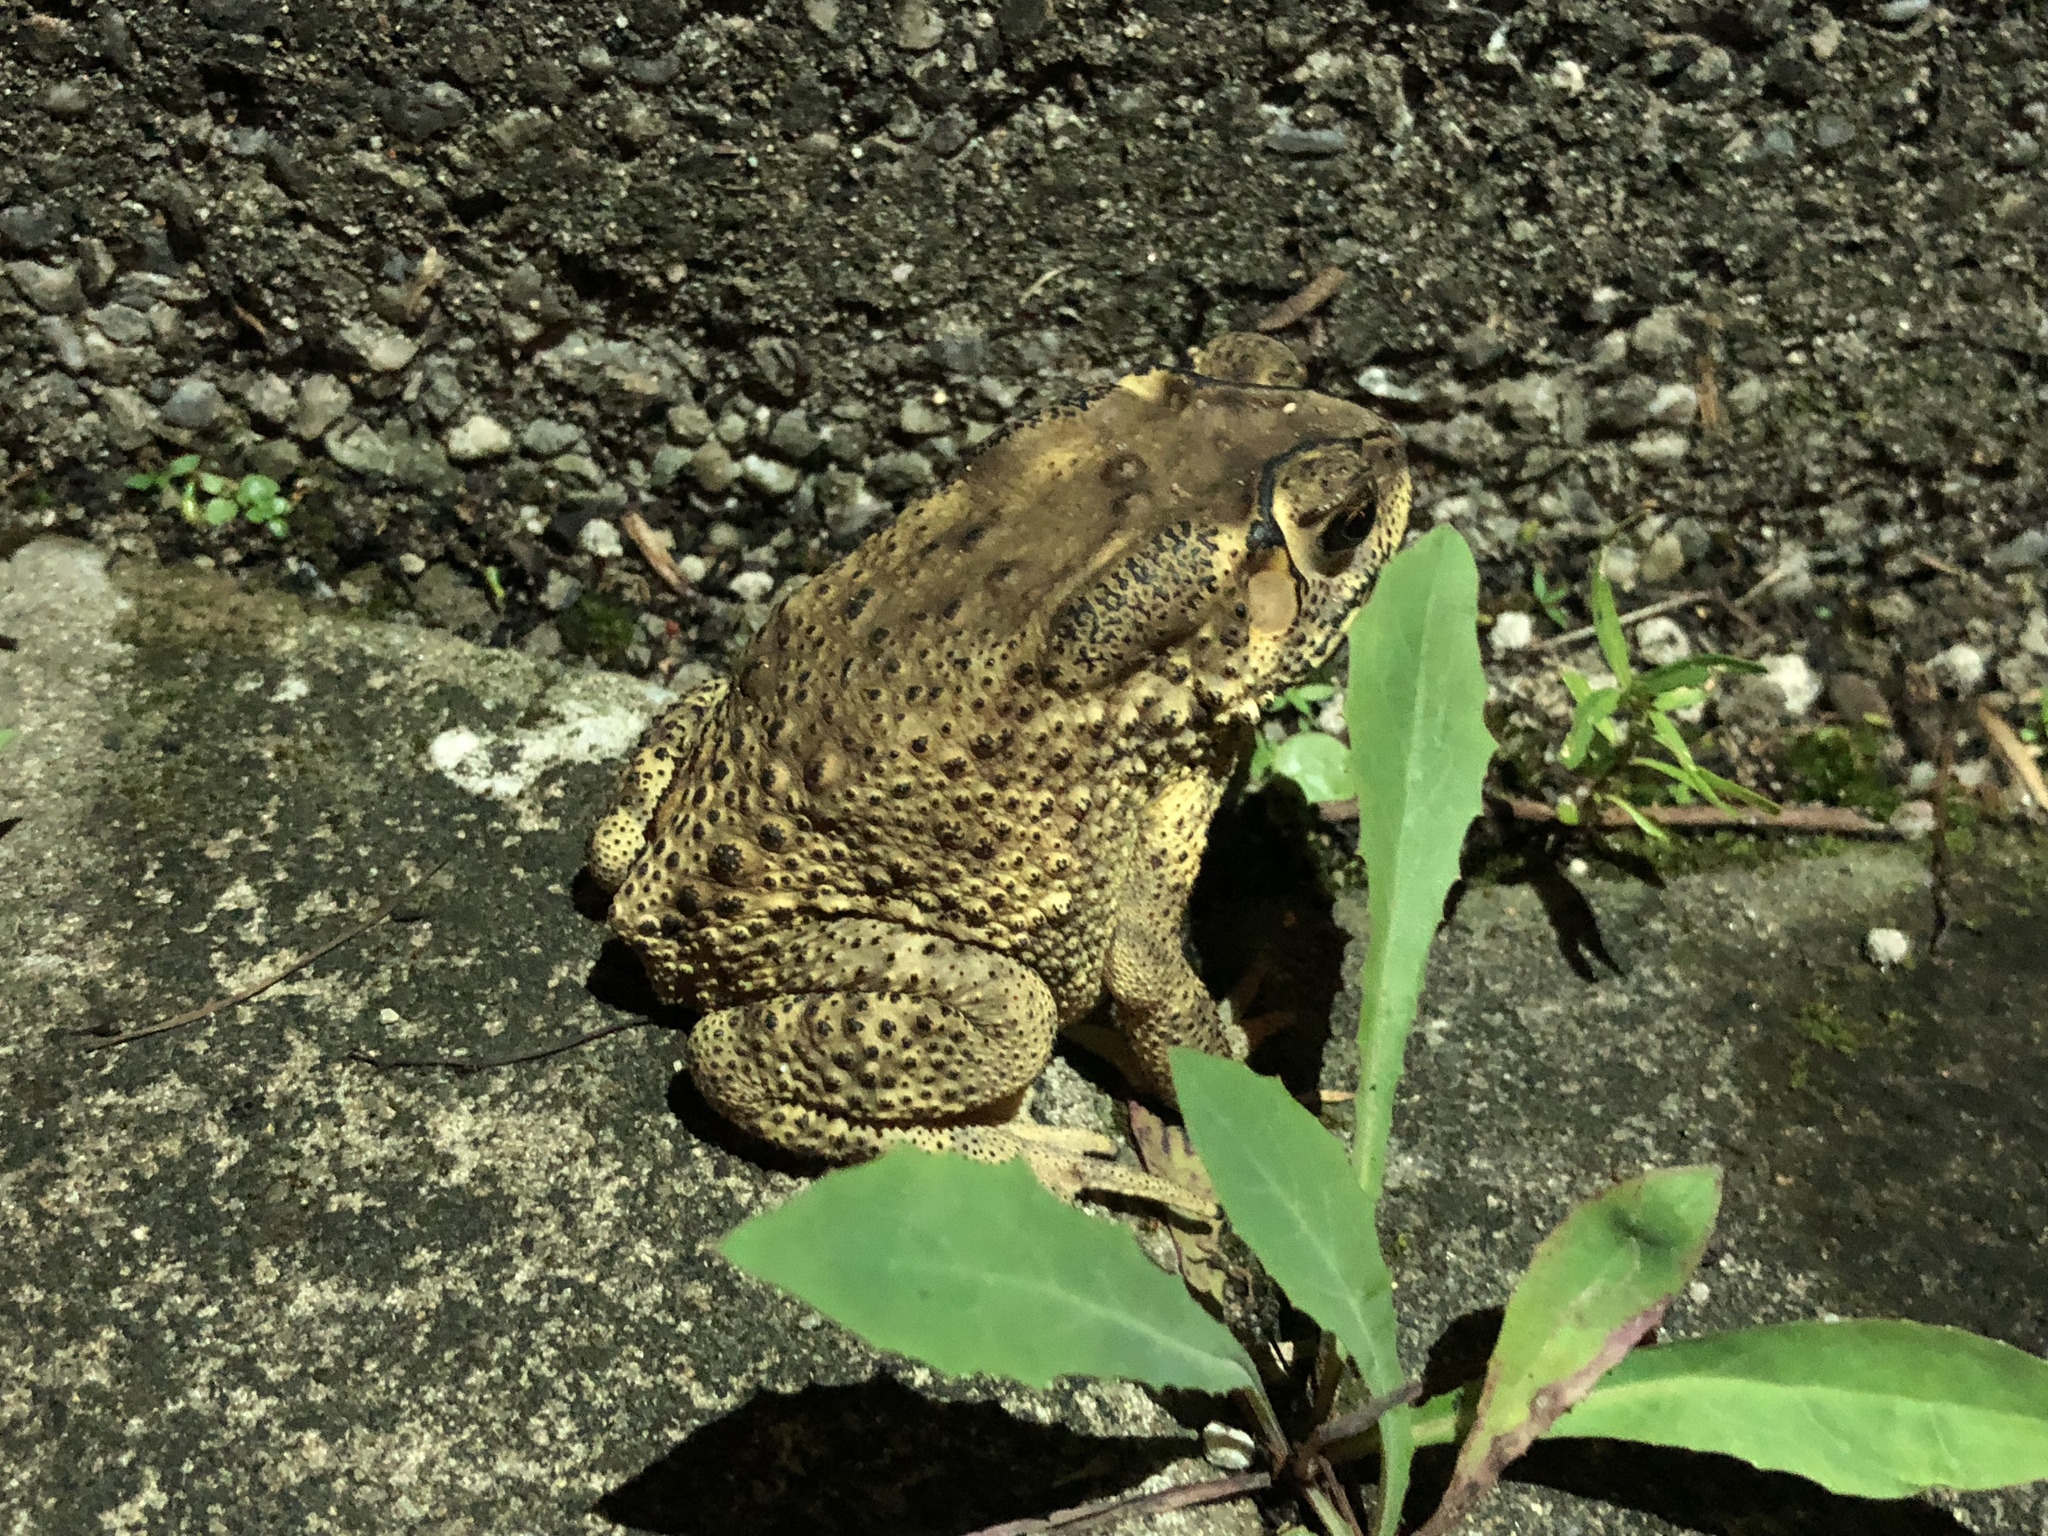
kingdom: Animalia
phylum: Chordata
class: Amphibia
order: Anura
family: Bufonidae
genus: Duttaphrynus
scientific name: Duttaphrynus melanostictus
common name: Common sunda toad
